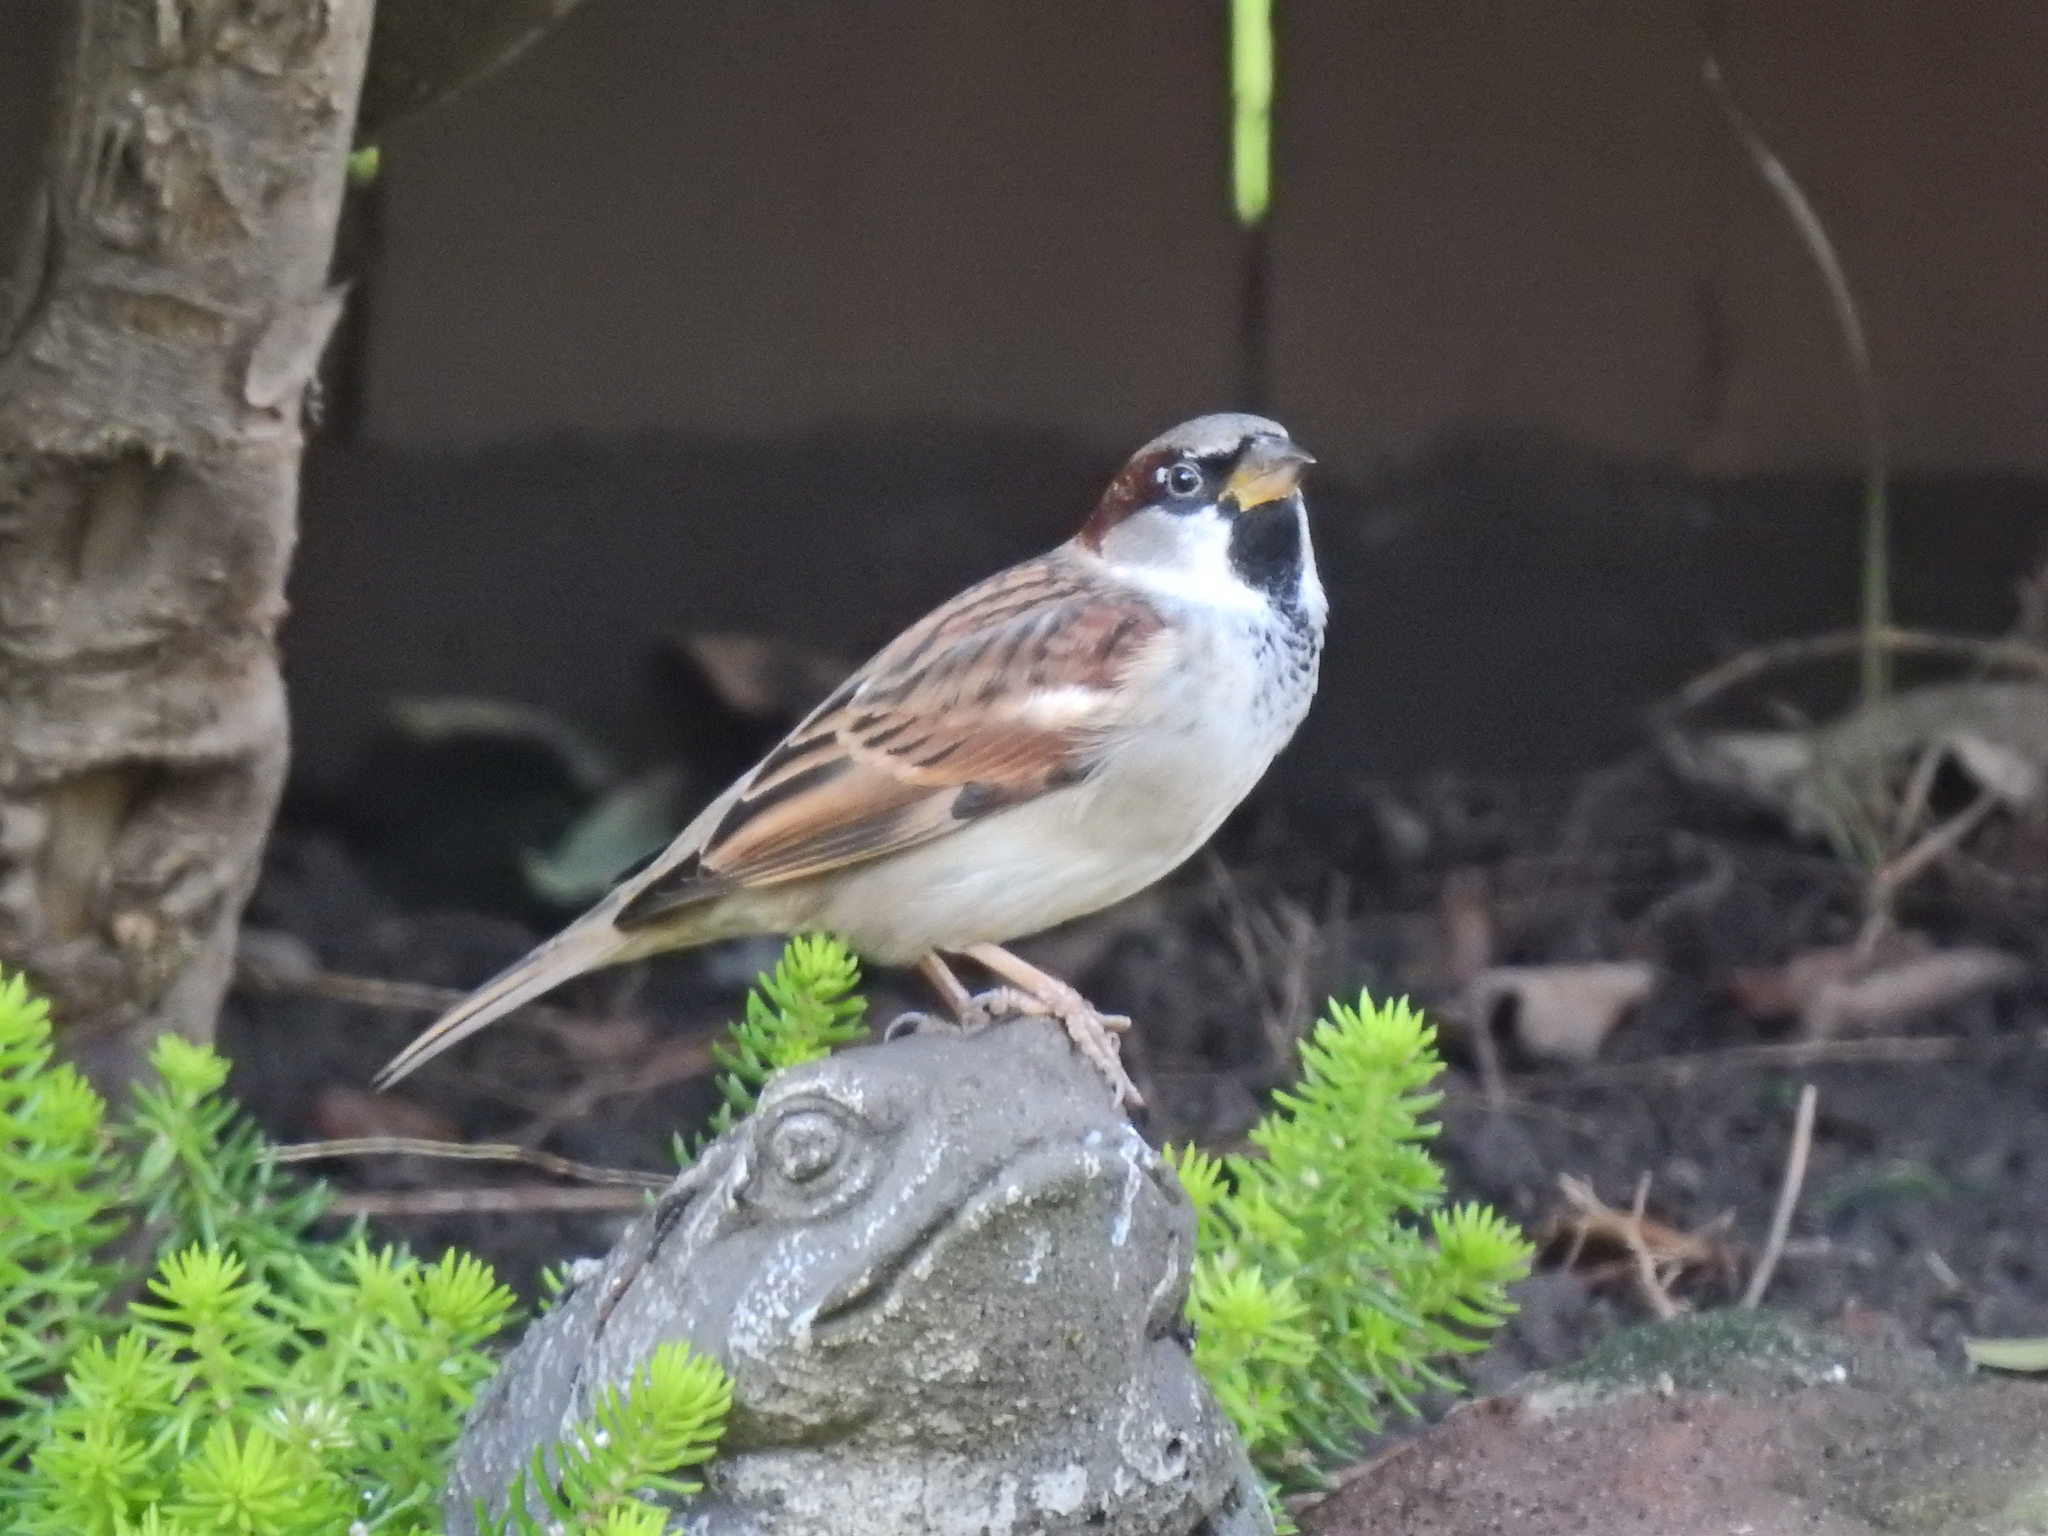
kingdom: Animalia
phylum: Chordata
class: Aves
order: Passeriformes
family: Passeridae
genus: Passer
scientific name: Passer domesticus
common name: House sparrow
